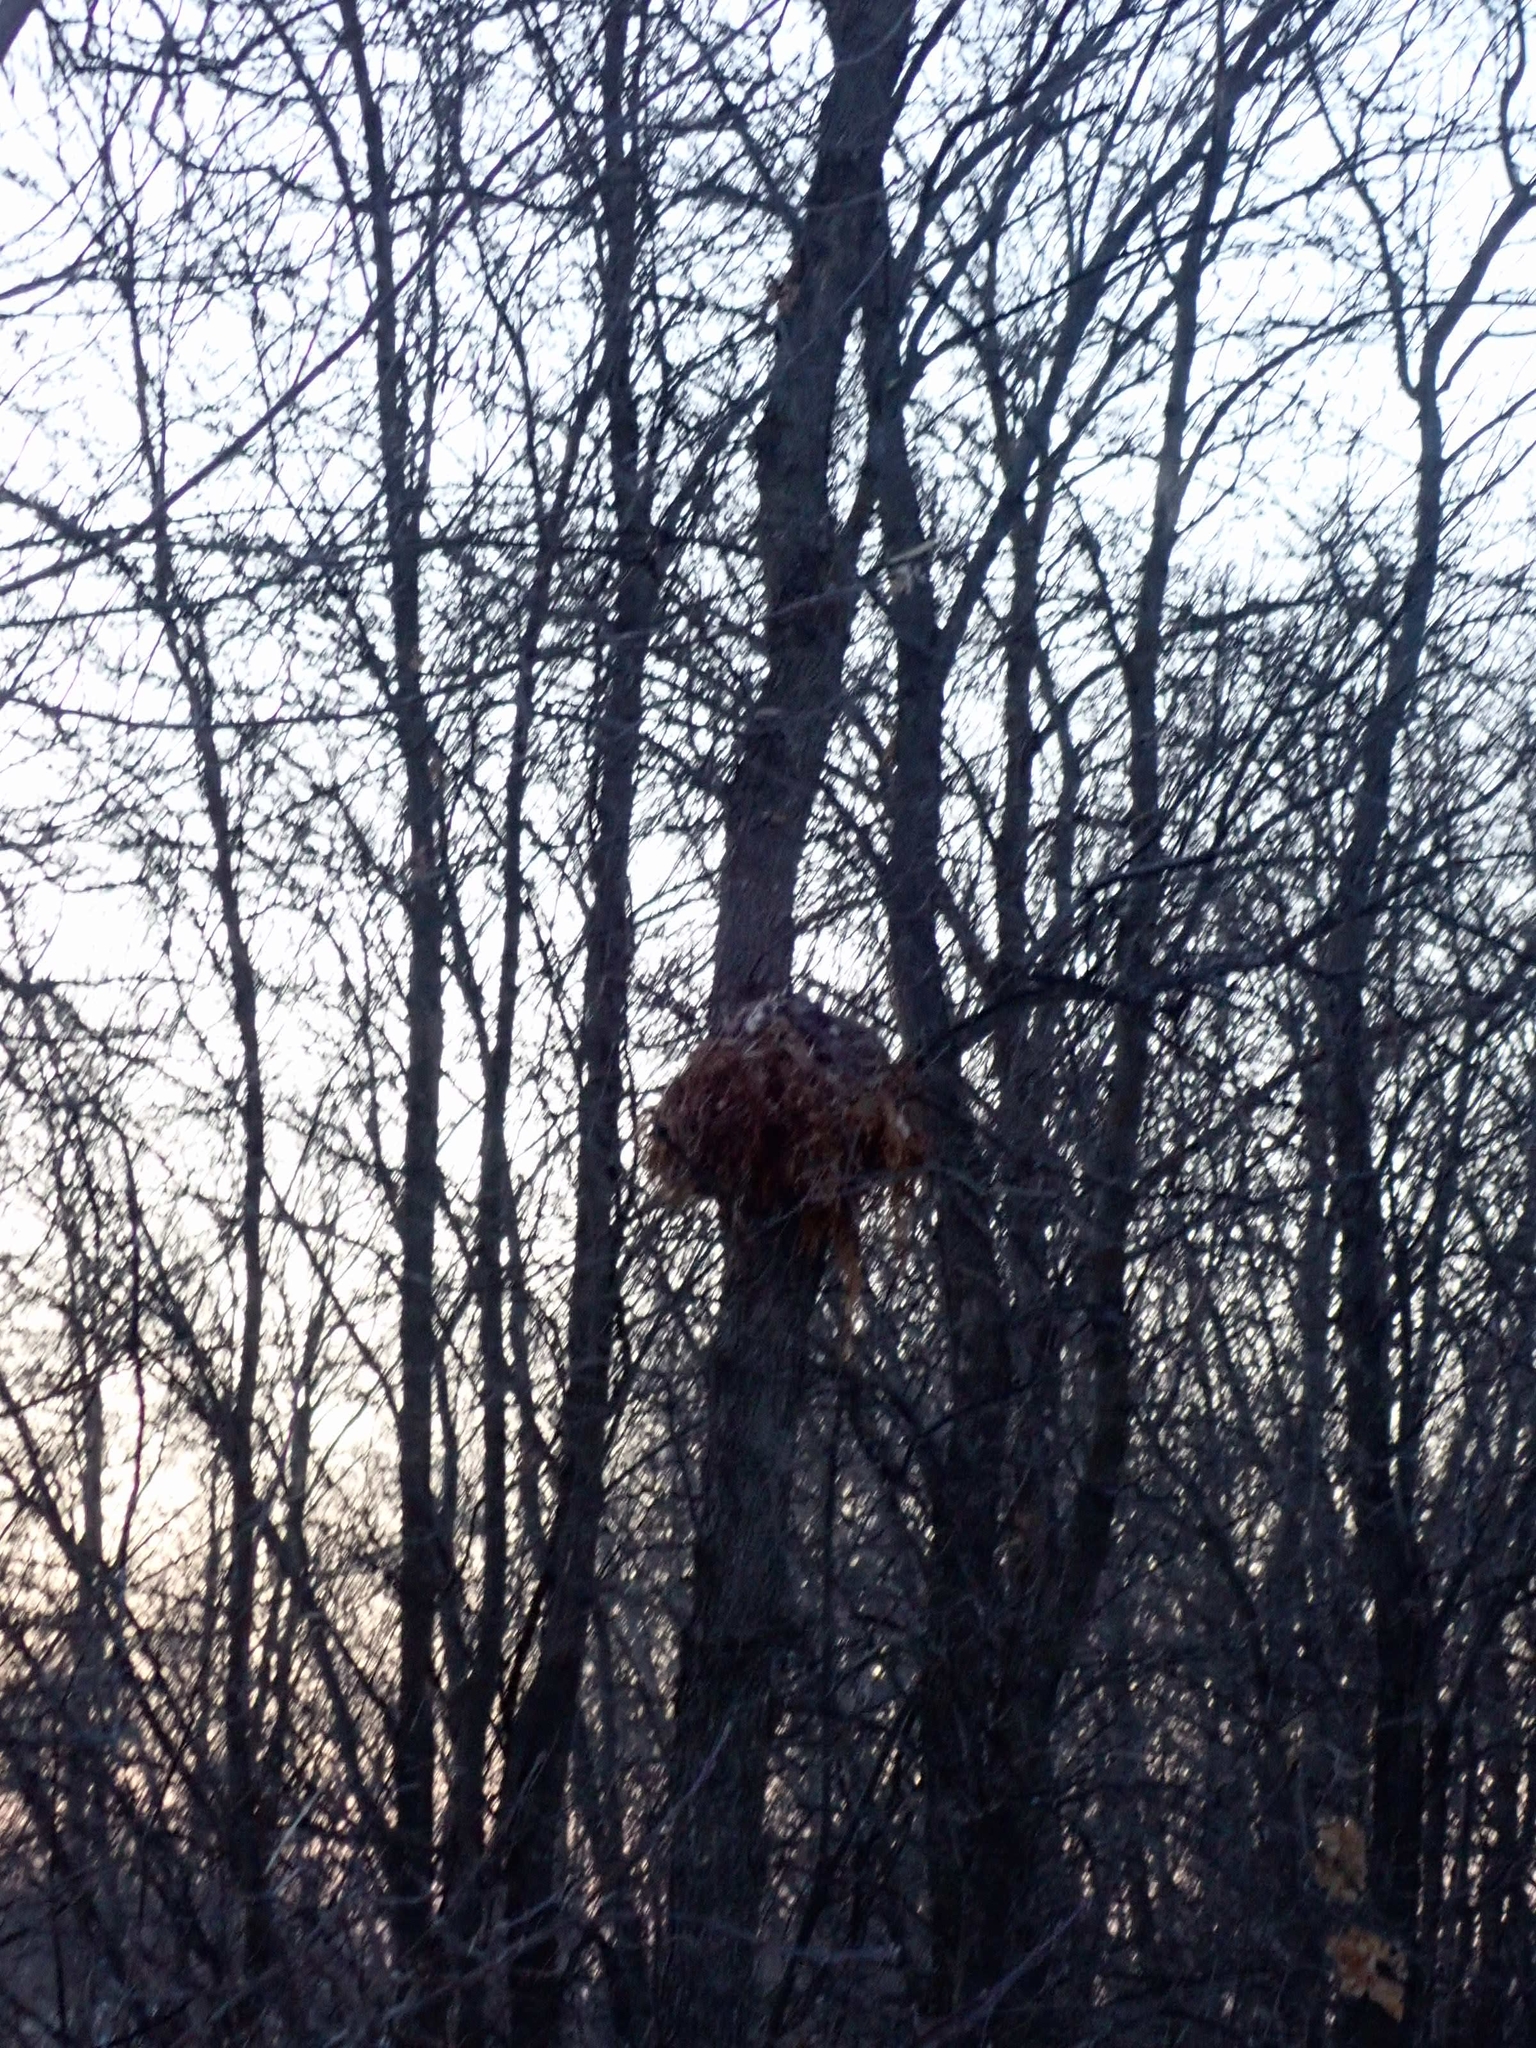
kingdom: Animalia
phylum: Chordata
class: Mammalia
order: Rodentia
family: Sciuridae
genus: Sciurus
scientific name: Sciurus carolinensis
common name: Eastern gray squirrel
